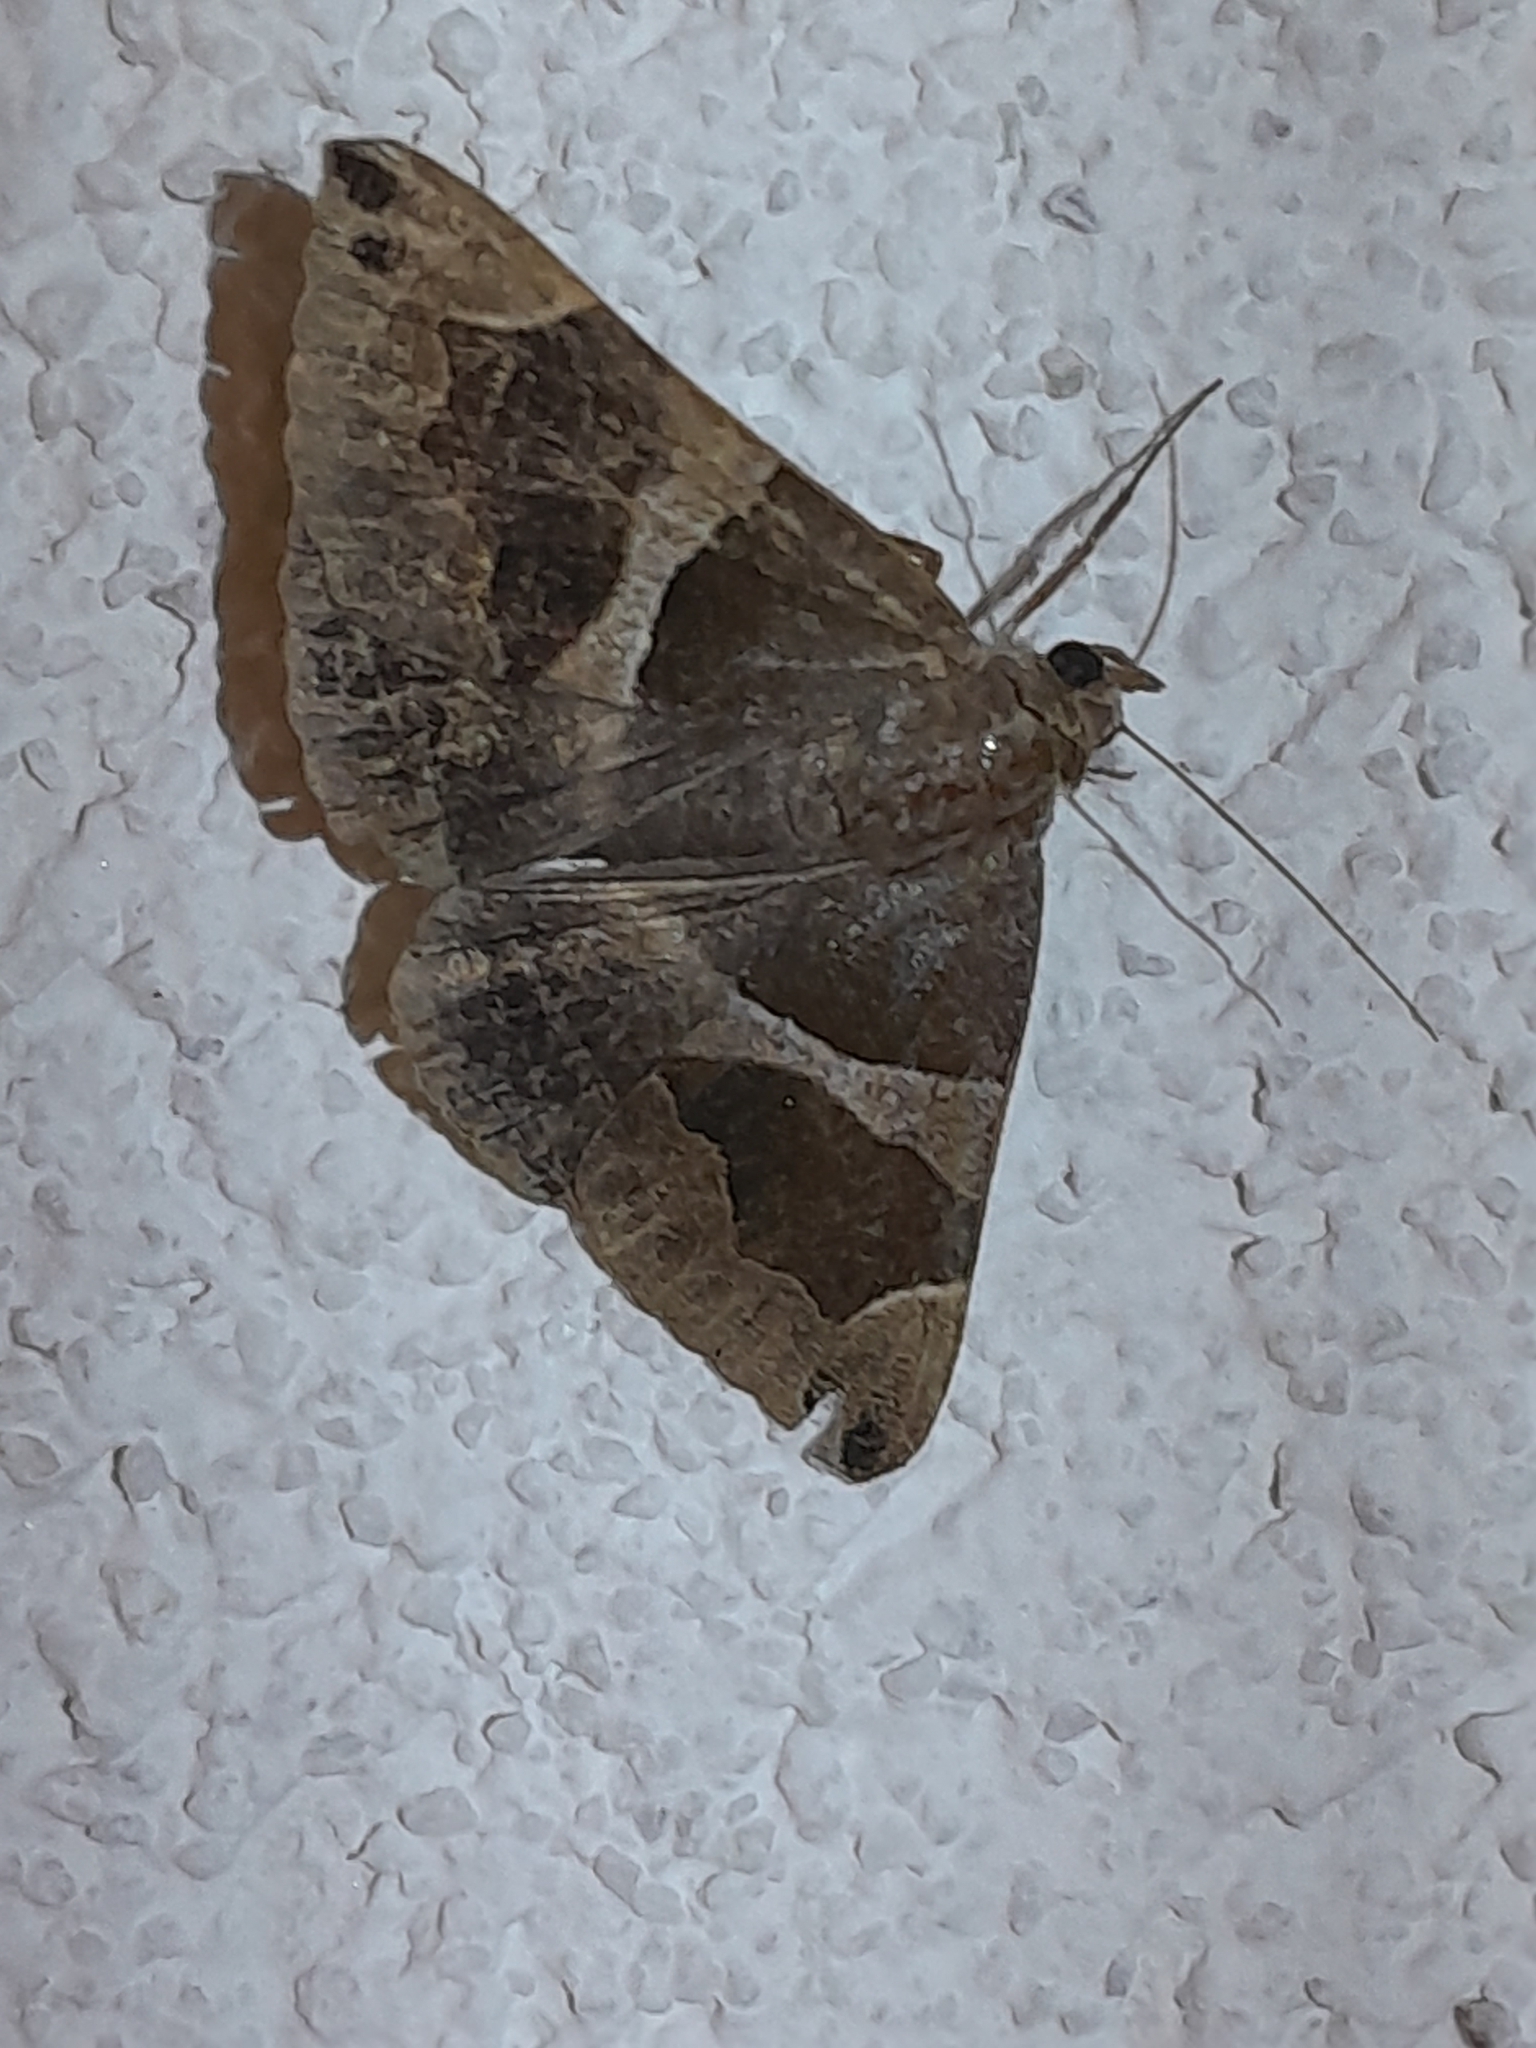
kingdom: Animalia
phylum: Arthropoda
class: Insecta
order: Lepidoptera
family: Erebidae
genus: Dysgonia
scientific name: Dysgonia algira
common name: Passenger
